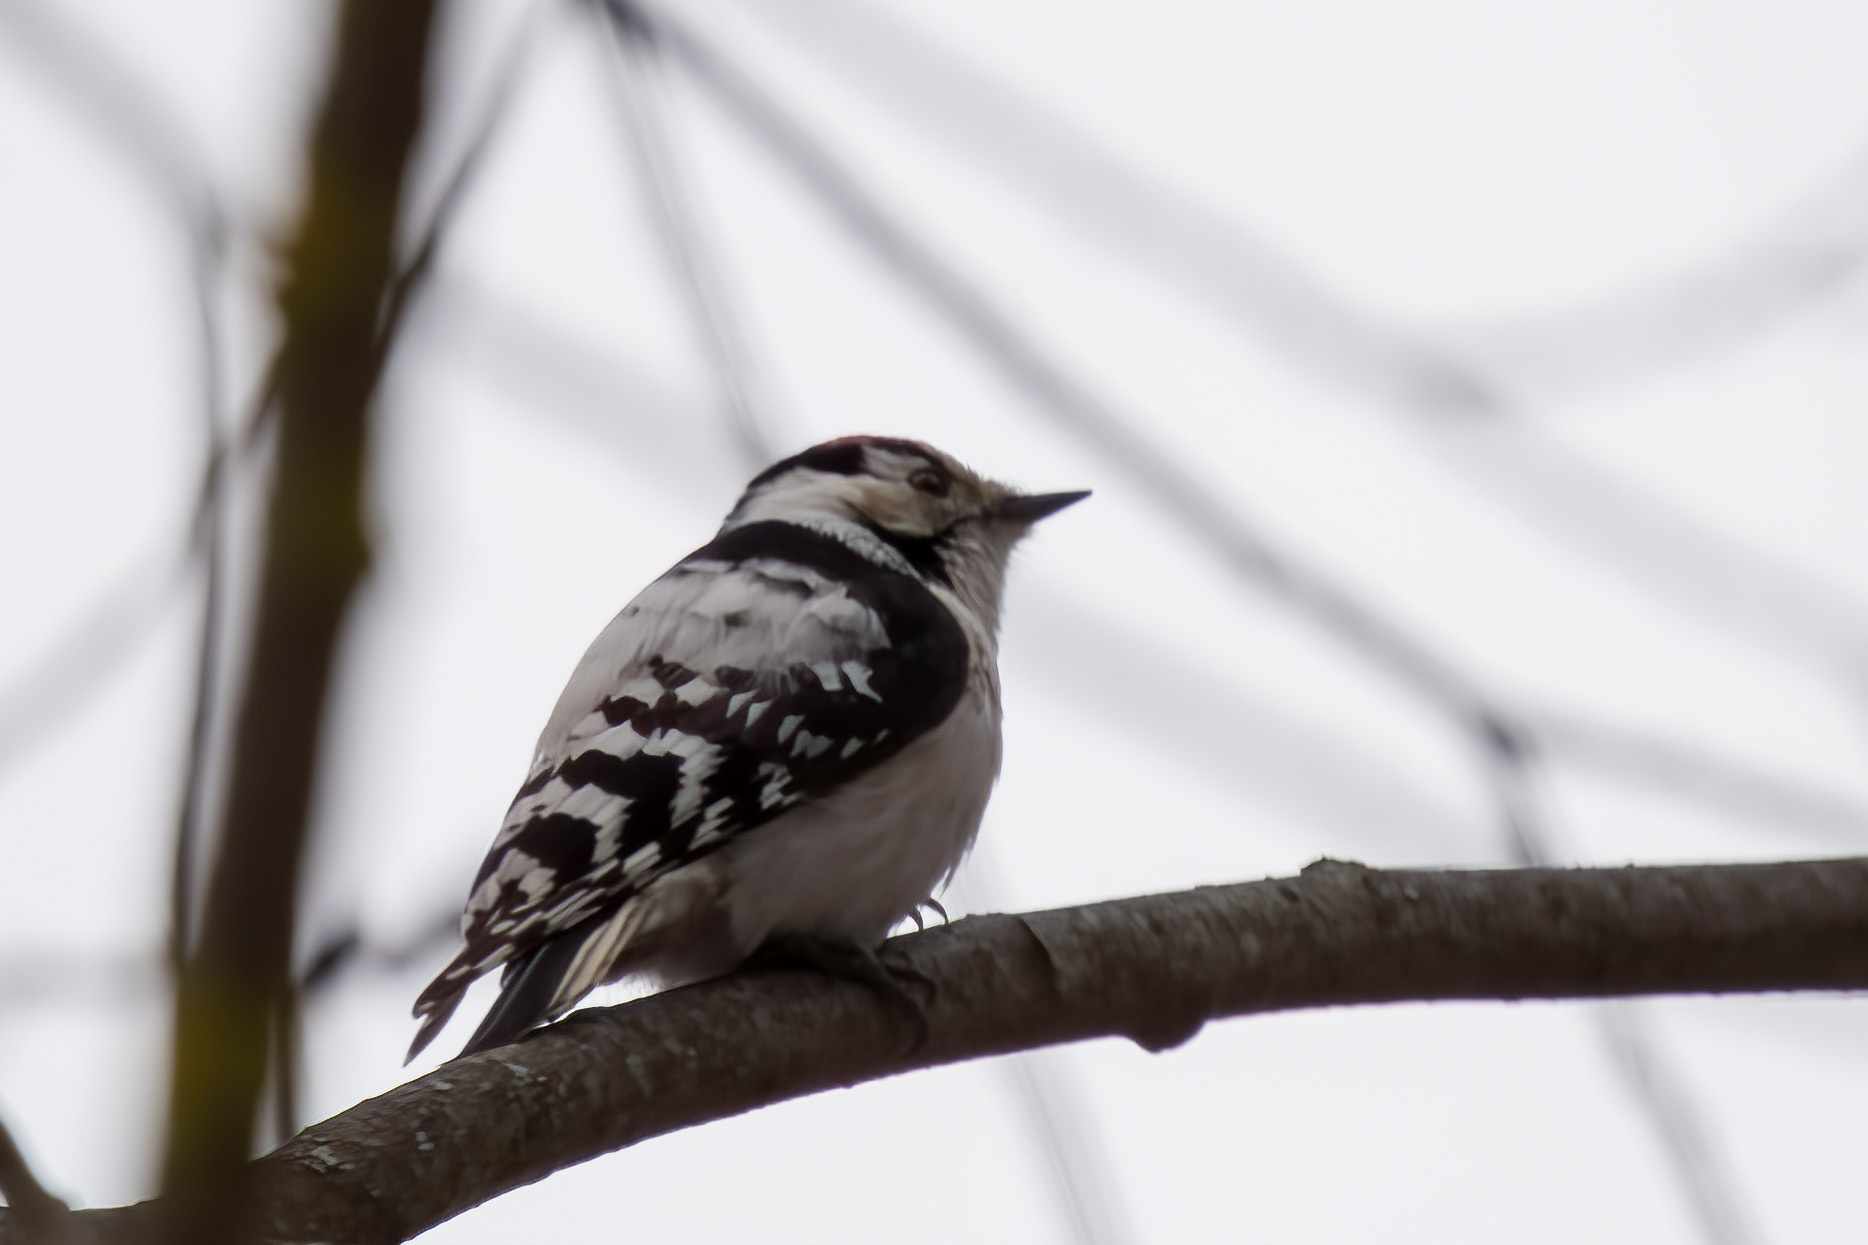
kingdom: Animalia
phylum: Chordata
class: Aves
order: Piciformes
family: Picidae
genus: Dryobates
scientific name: Dryobates minor
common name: Lesser spotted woodpecker
